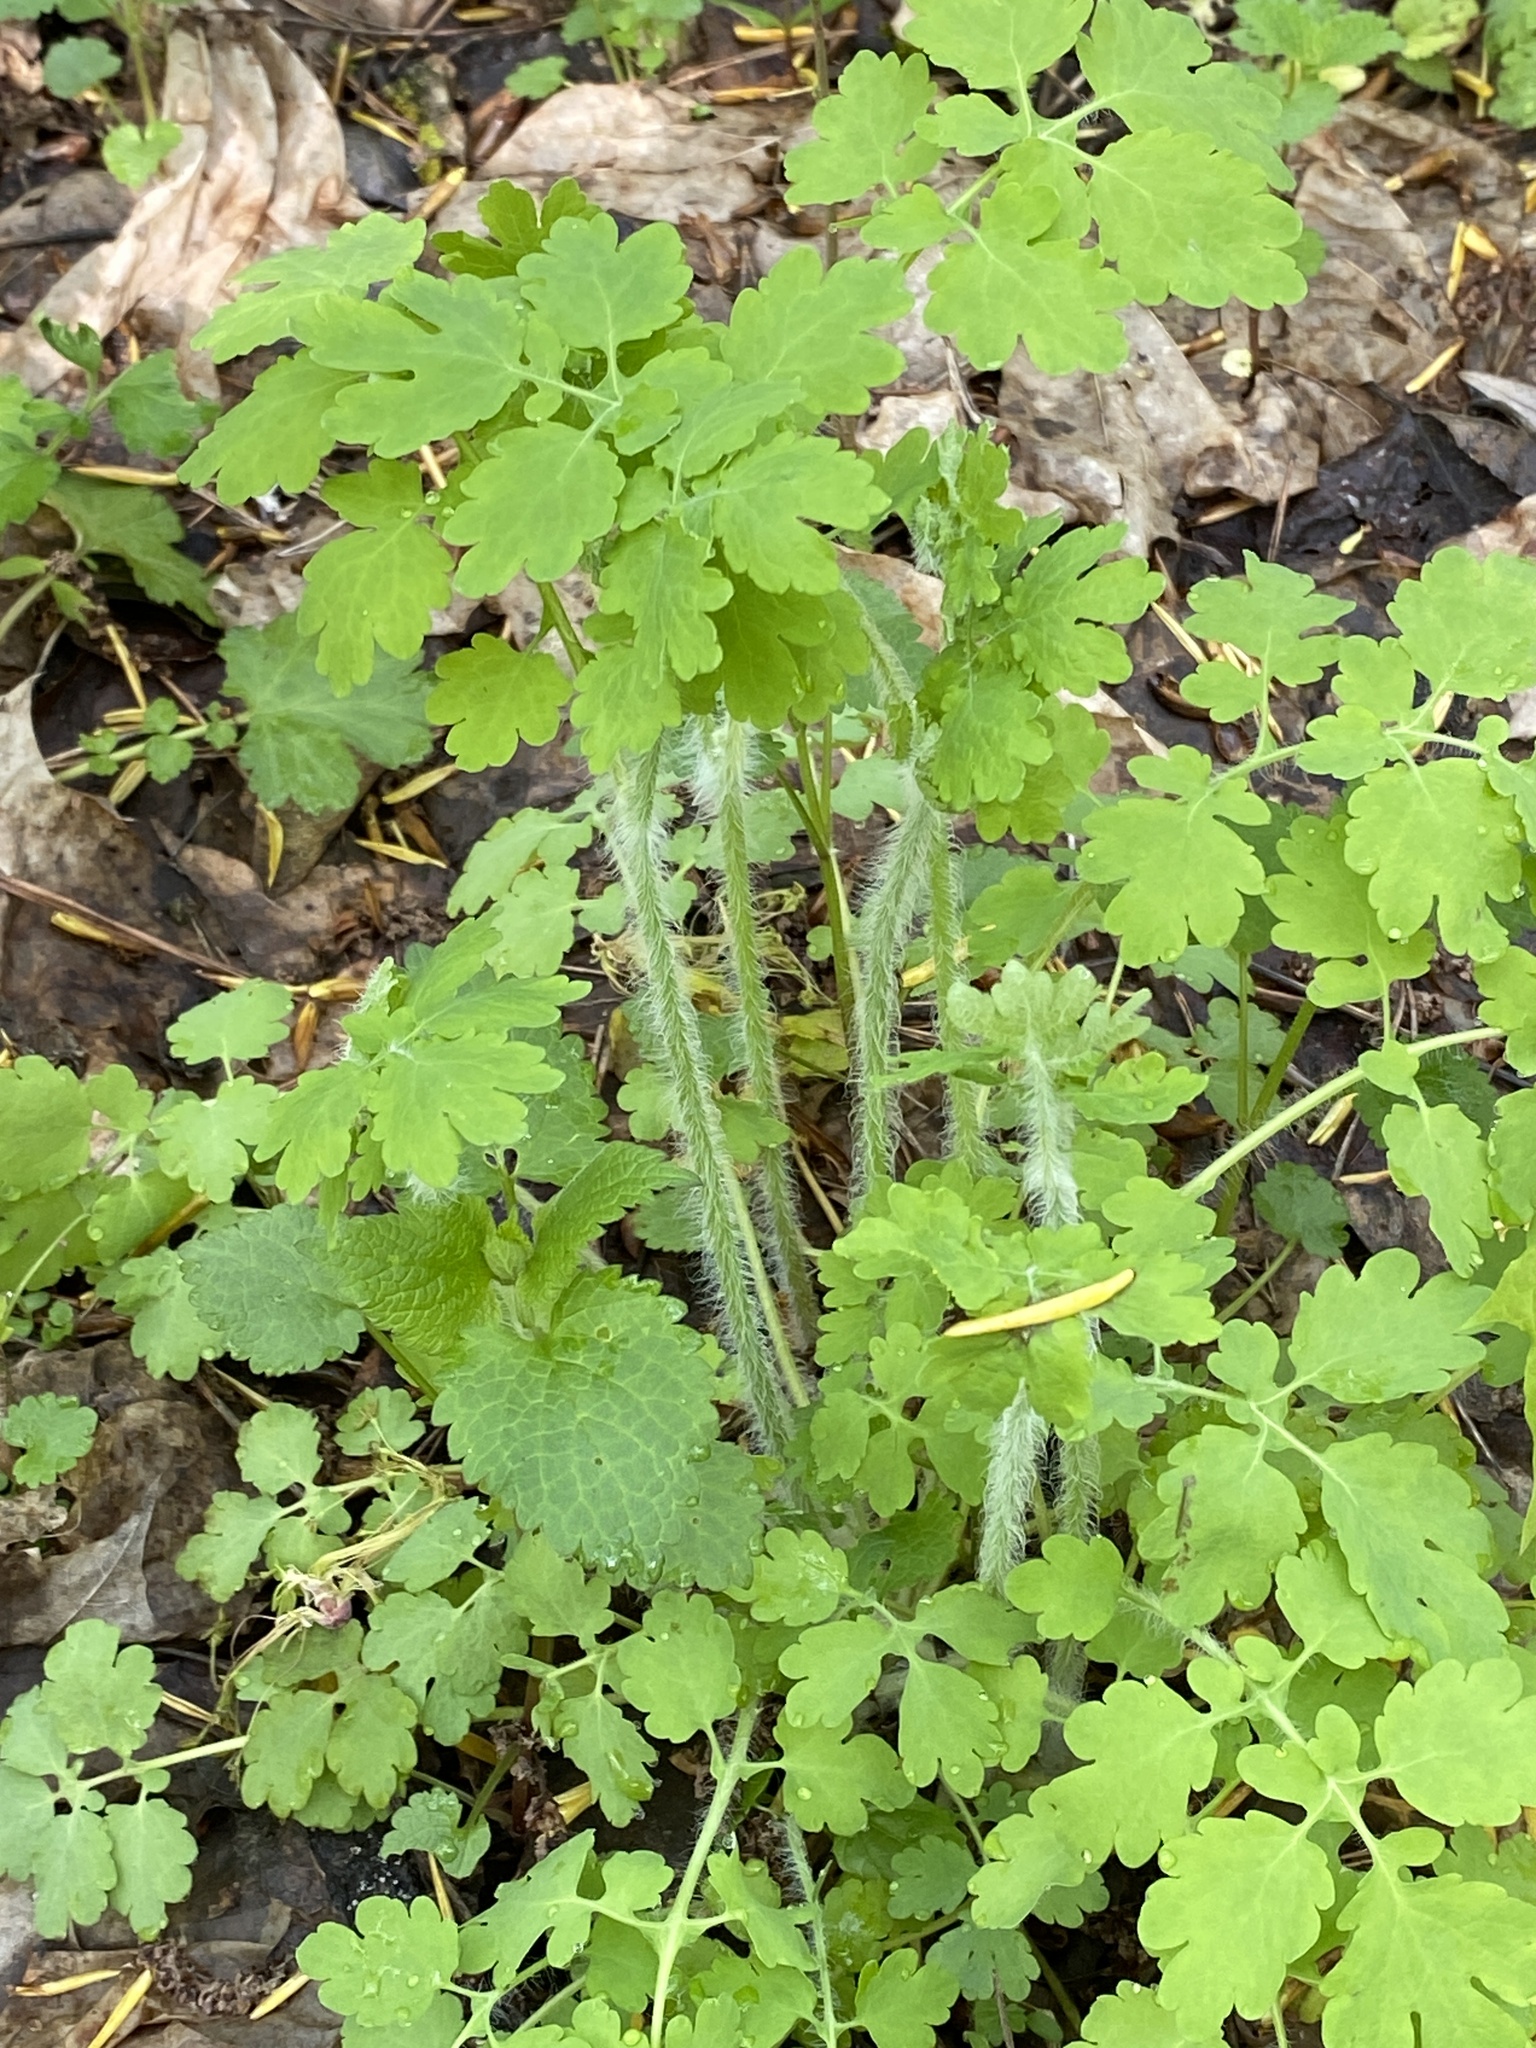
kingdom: Plantae
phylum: Tracheophyta
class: Magnoliopsida
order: Ranunculales
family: Papaveraceae
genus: Chelidonium
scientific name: Chelidonium majus
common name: Greater celandine
